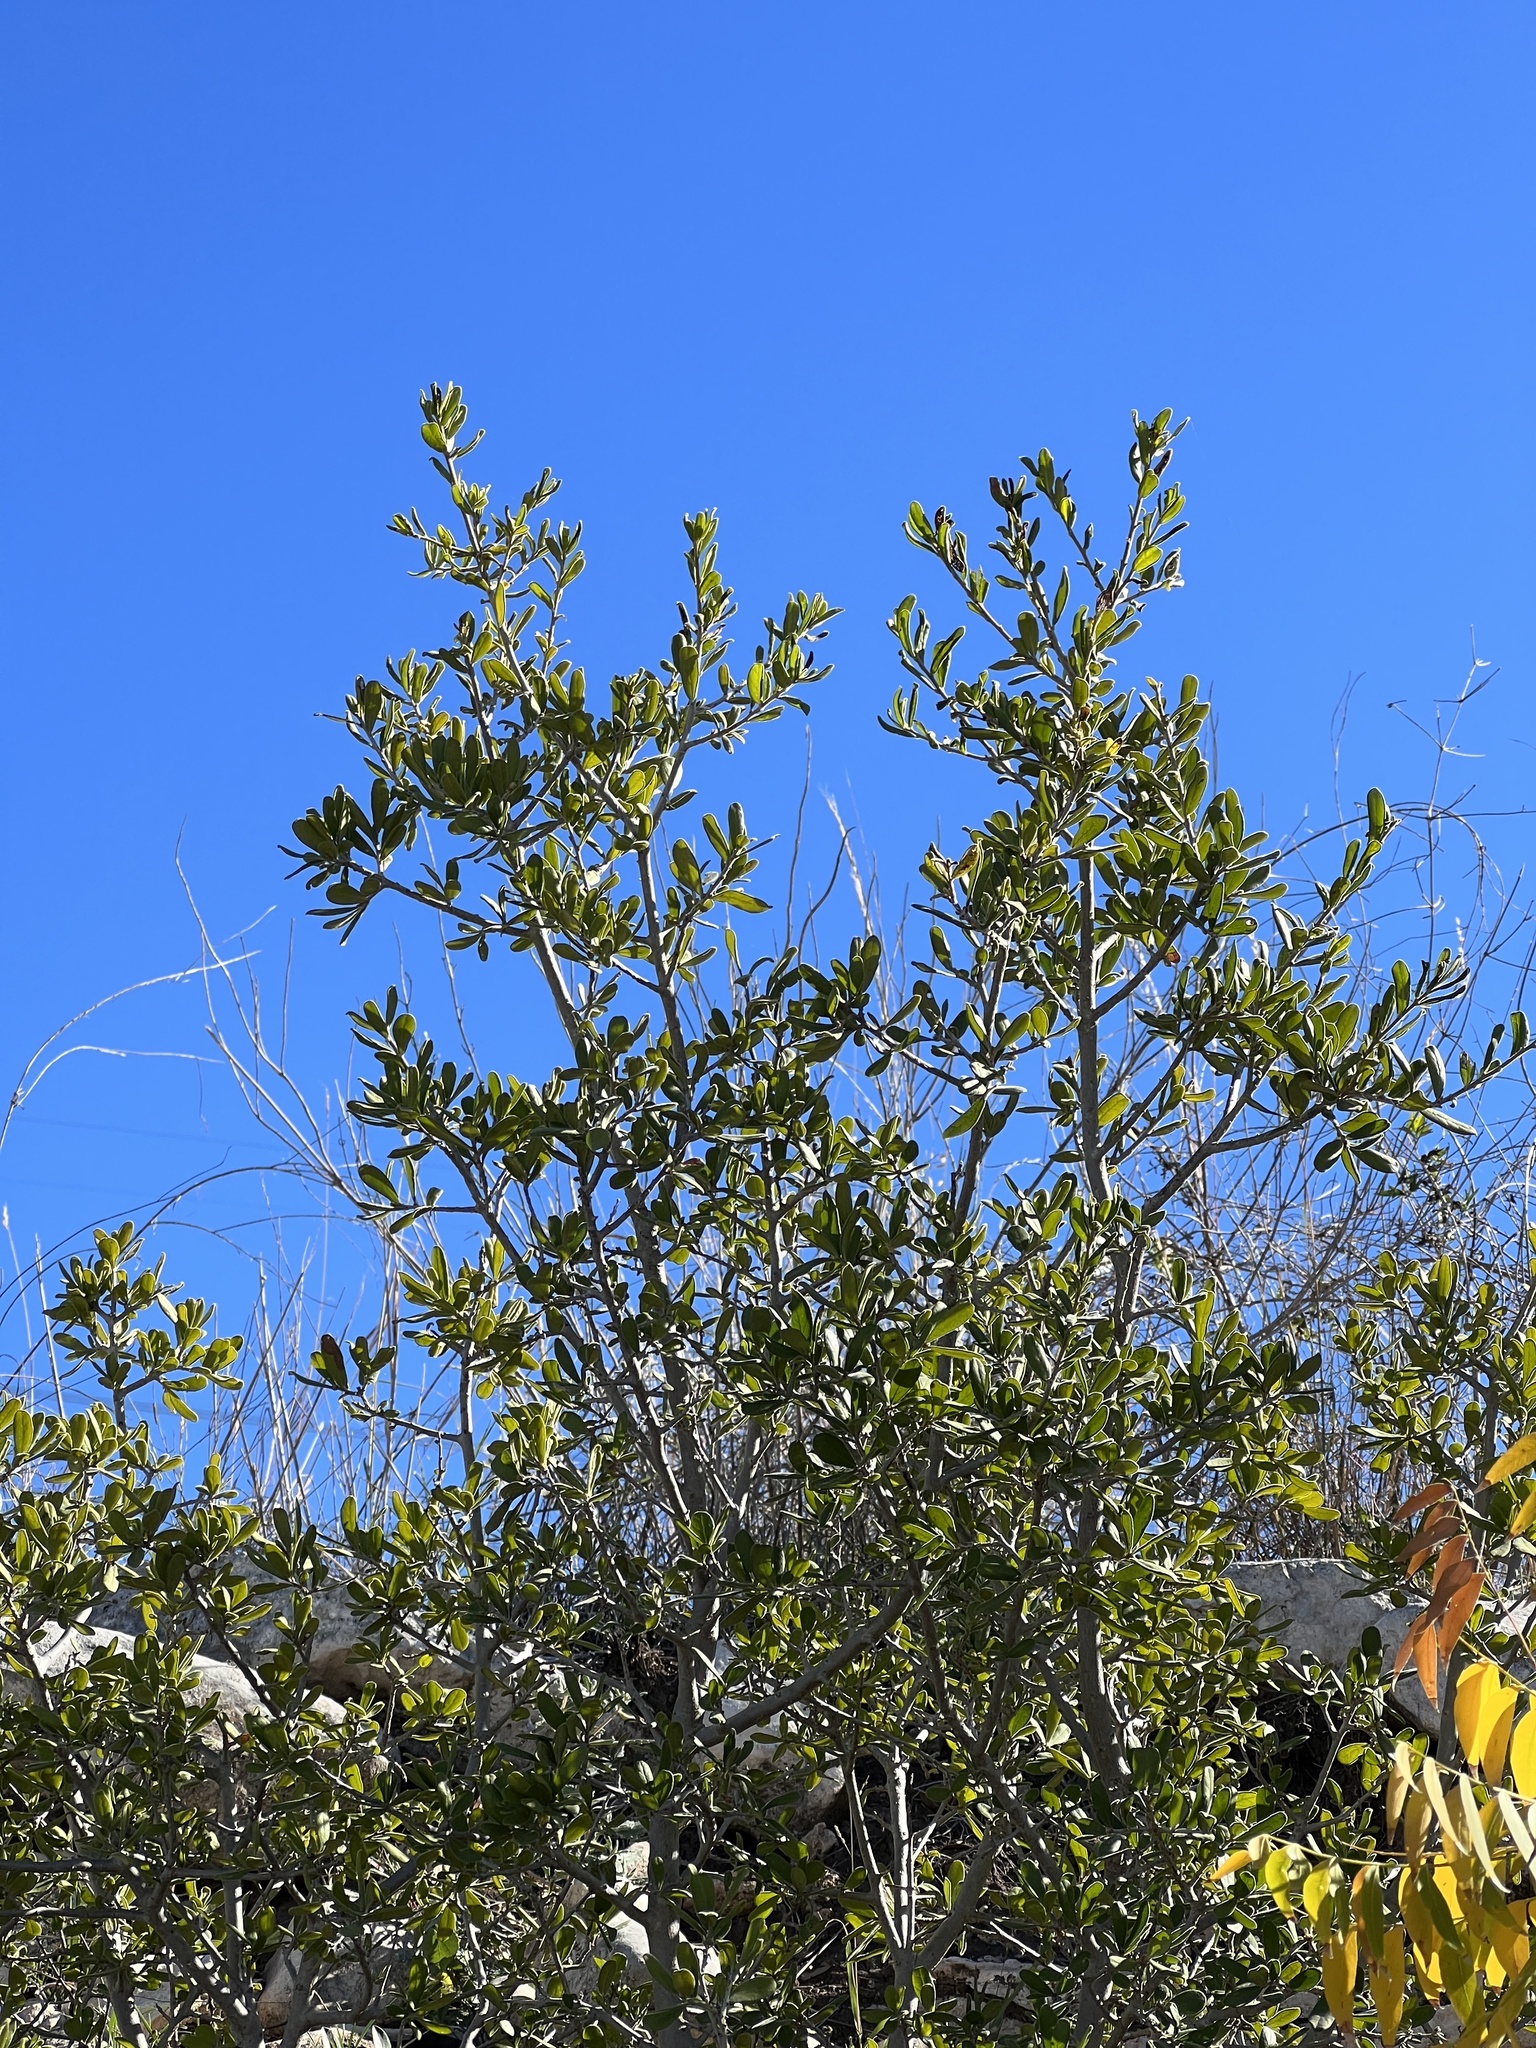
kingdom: Plantae
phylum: Tracheophyta
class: Magnoliopsida
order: Ericales
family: Ebenaceae
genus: Diospyros
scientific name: Diospyros texana
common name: Texas persimmon
